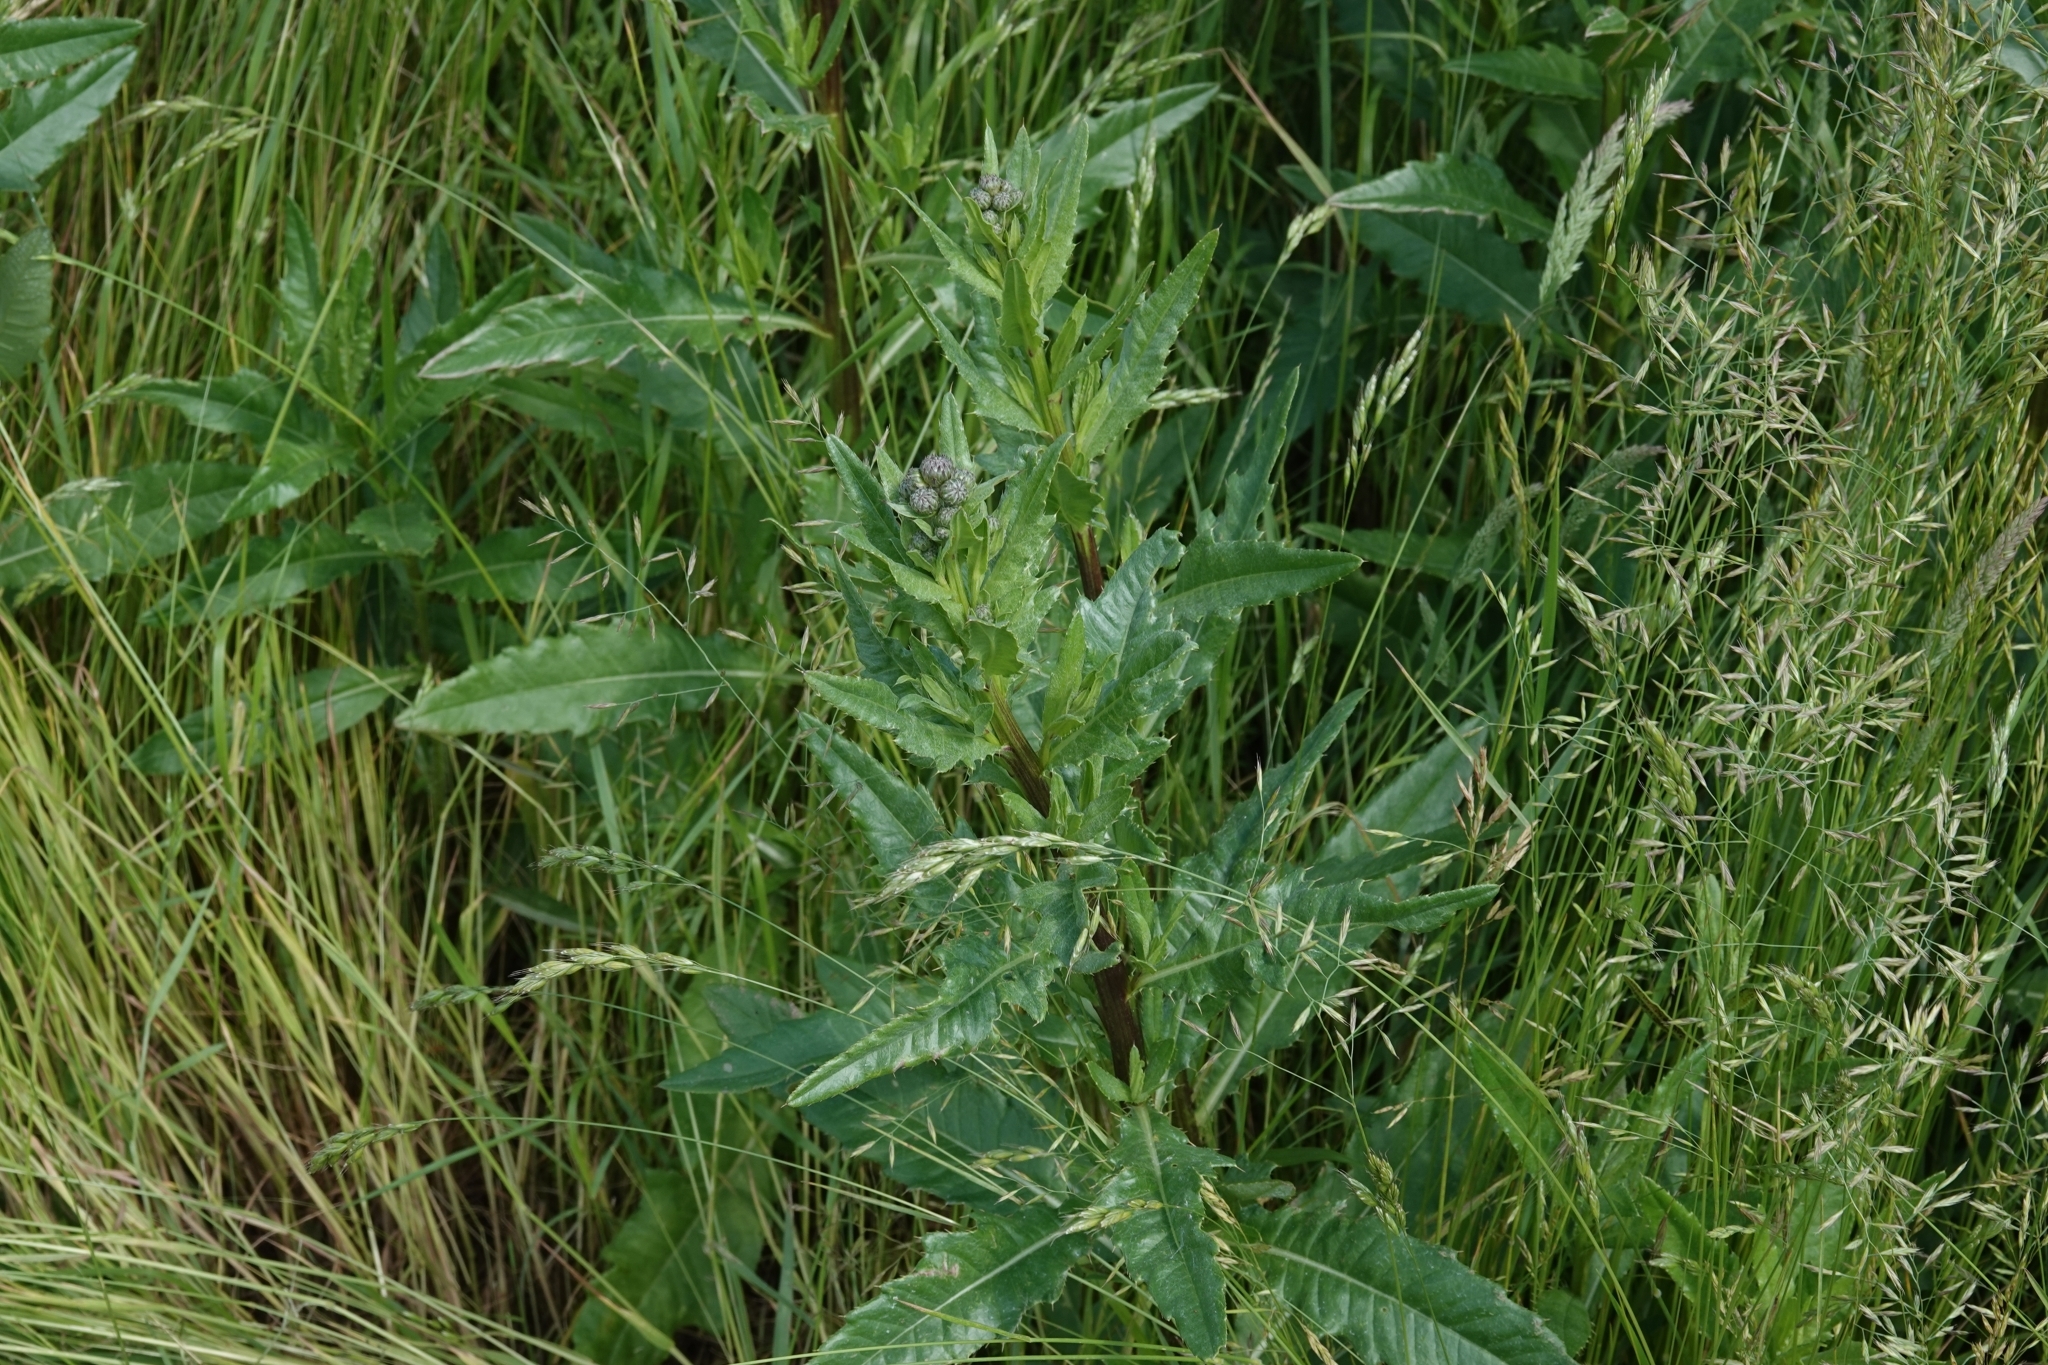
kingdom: Plantae
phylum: Tracheophyta
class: Magnoliopsida
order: Asterales
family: Asteraceae
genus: Cirsium
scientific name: Cirsium arvense
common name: Creeping thistle
